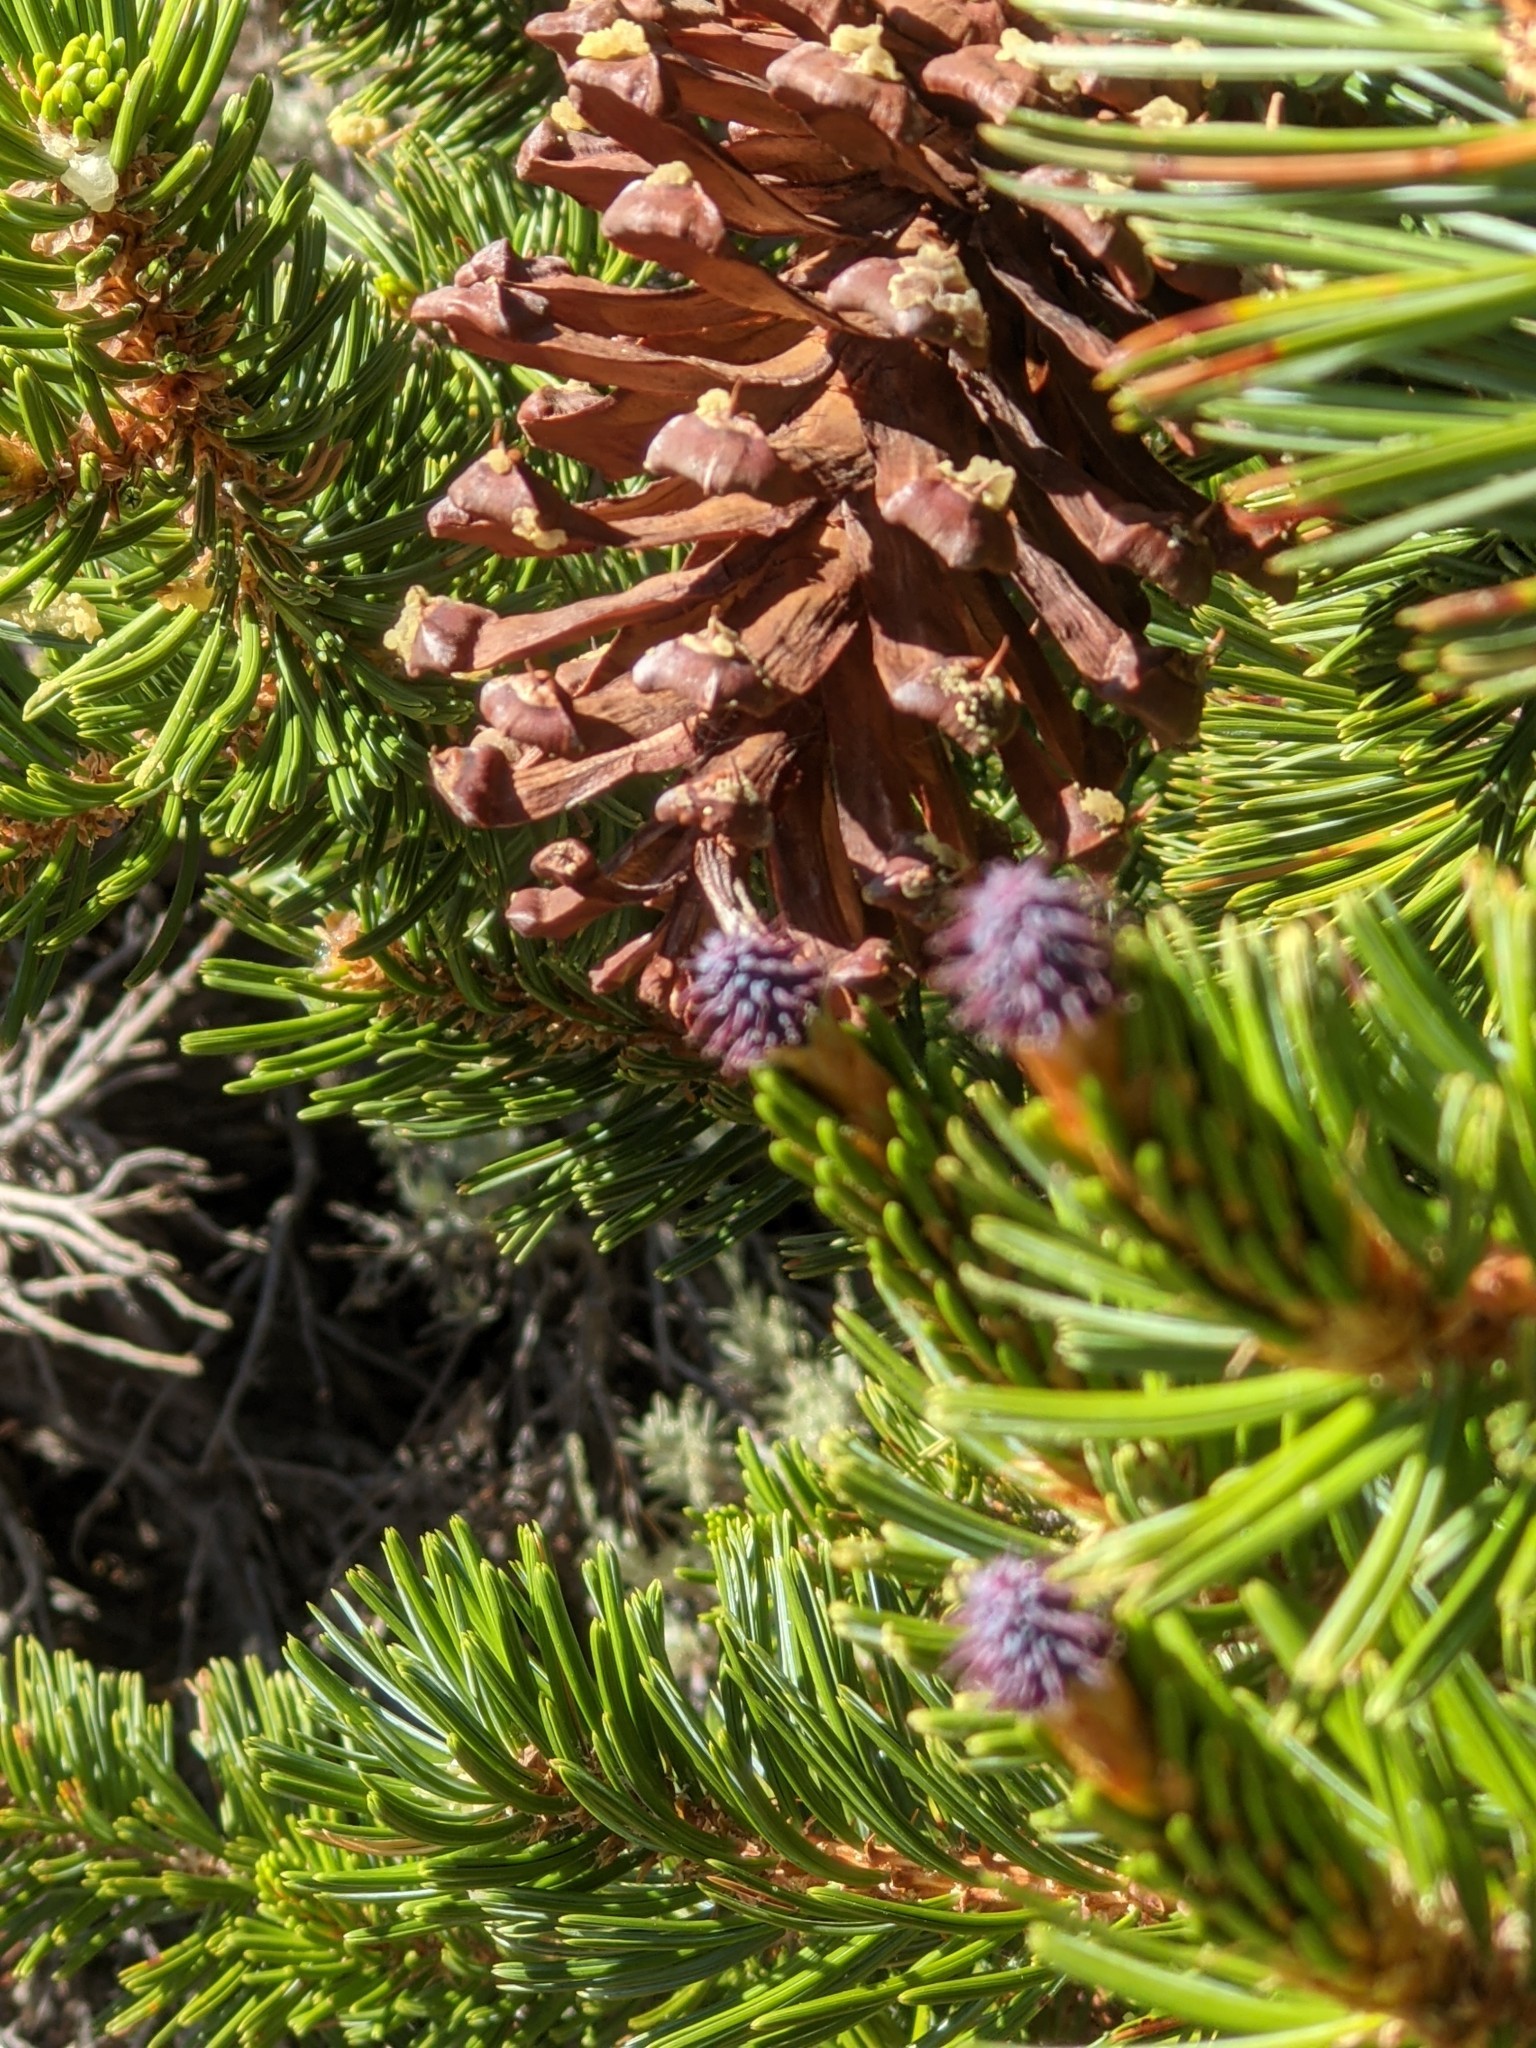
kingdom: Plantae
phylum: Tracheophyta
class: Pinopsida
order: Pinales
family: Pinaceae
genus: Pinus
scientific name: Pinus longaeva
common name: Intermountain bristlecone pine
